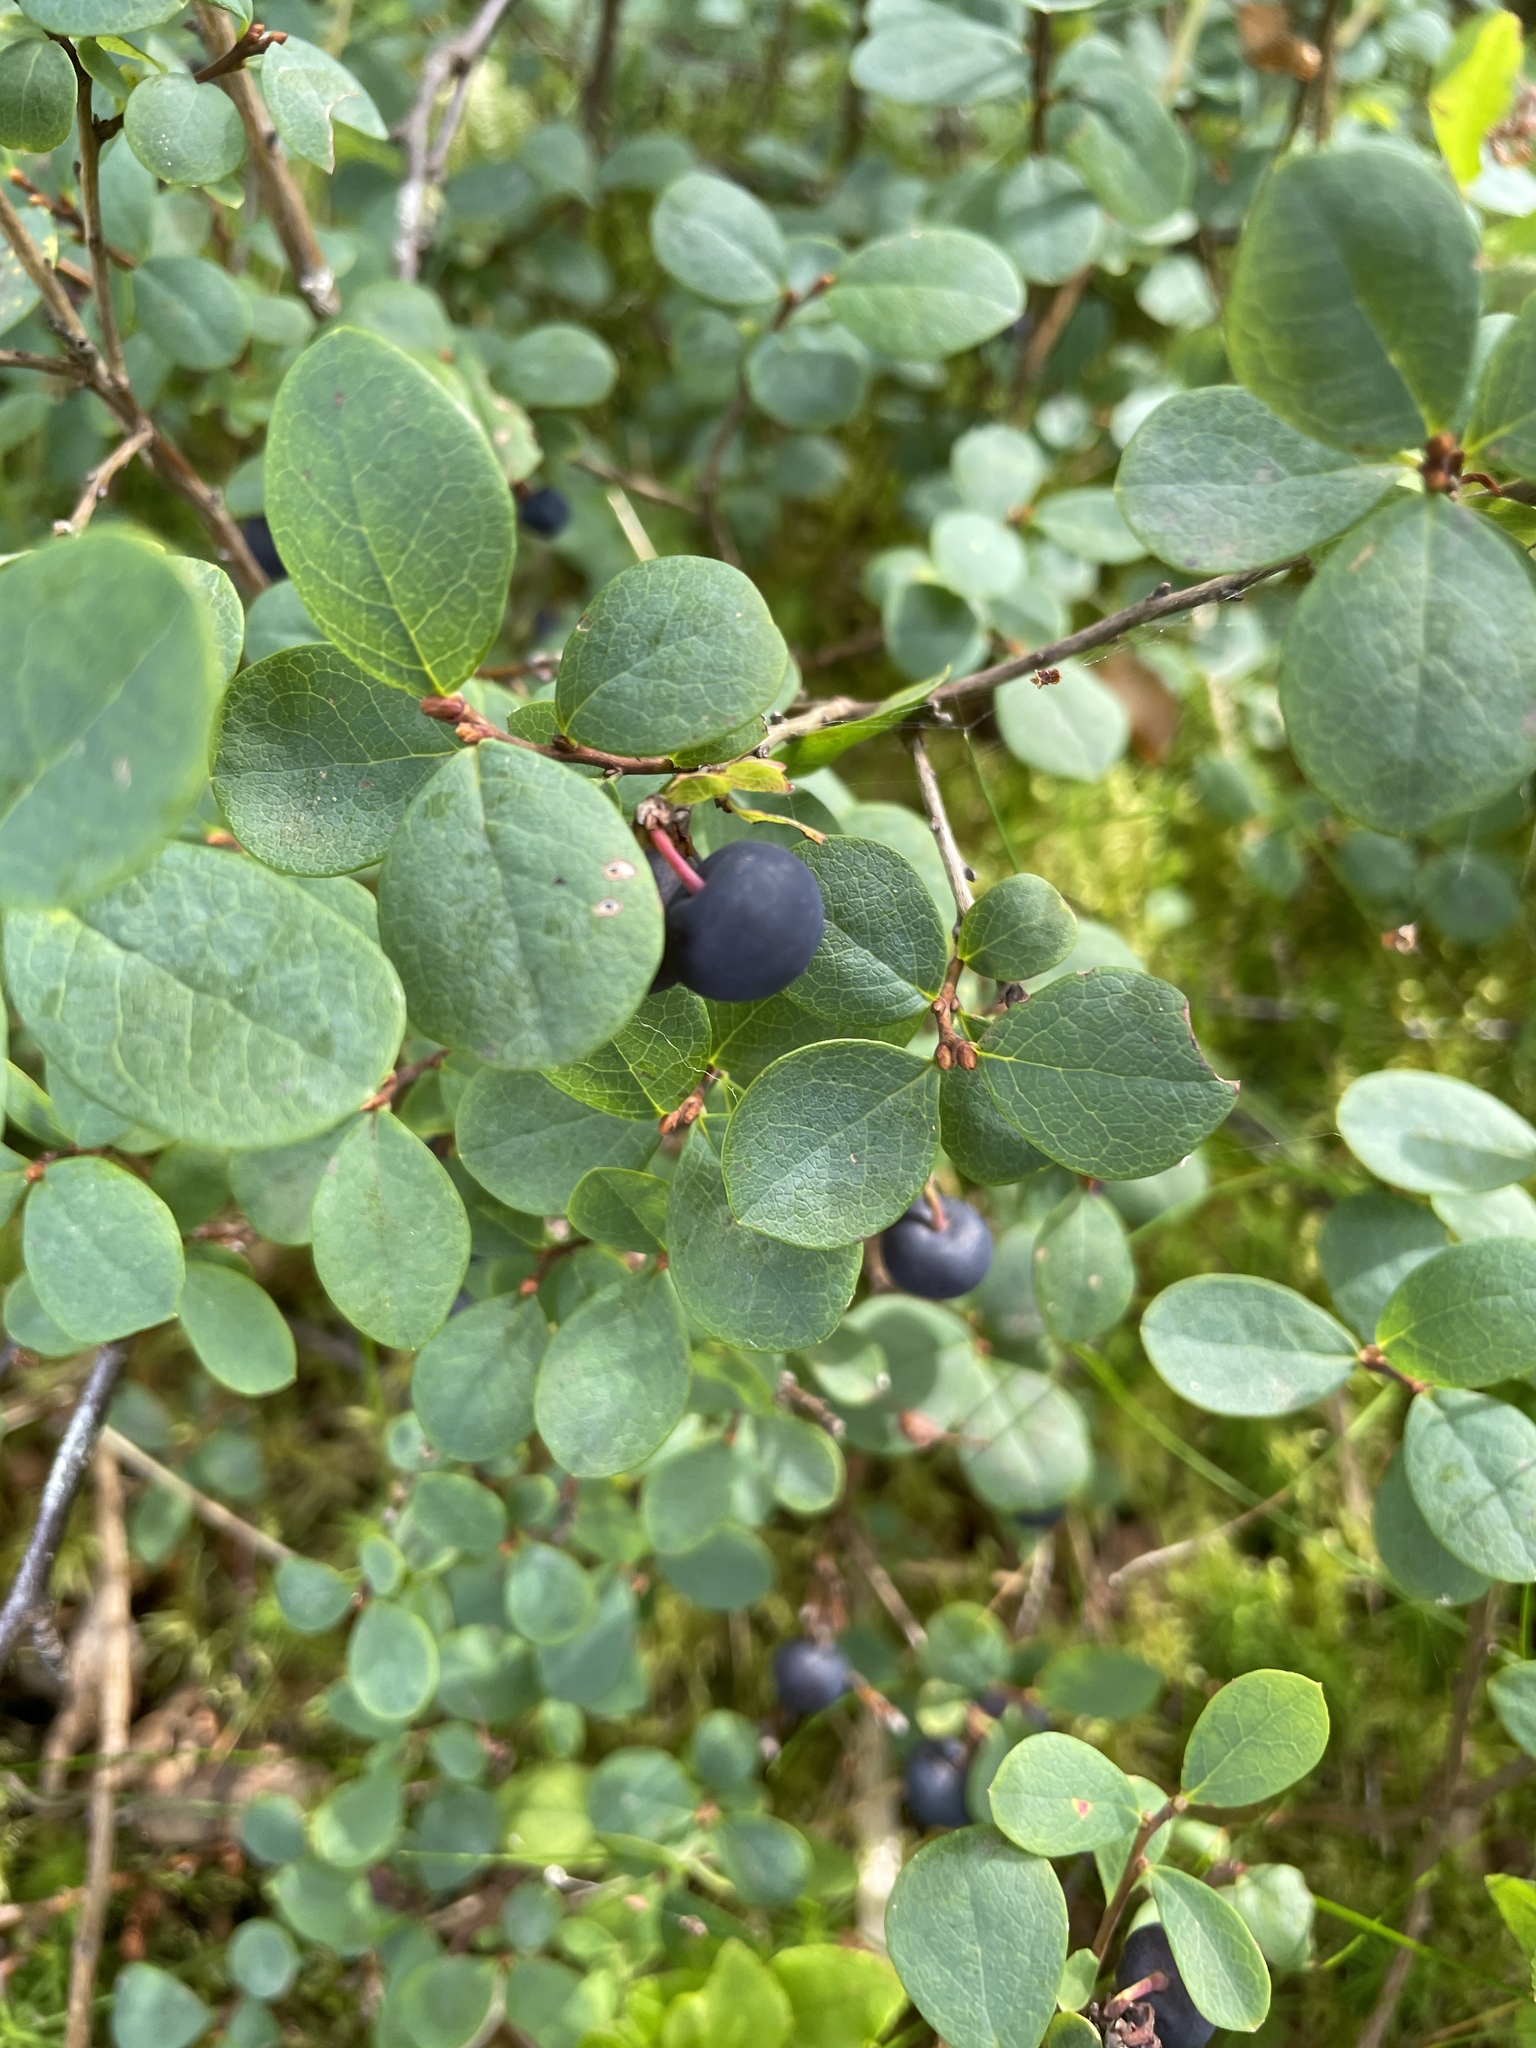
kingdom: Plantae
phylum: Tracheophyta
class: Magnoliopsida
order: Ericales
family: Ericaceae
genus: Vaccinium
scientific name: Vaccinium uliginosum
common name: Bog bilberry
